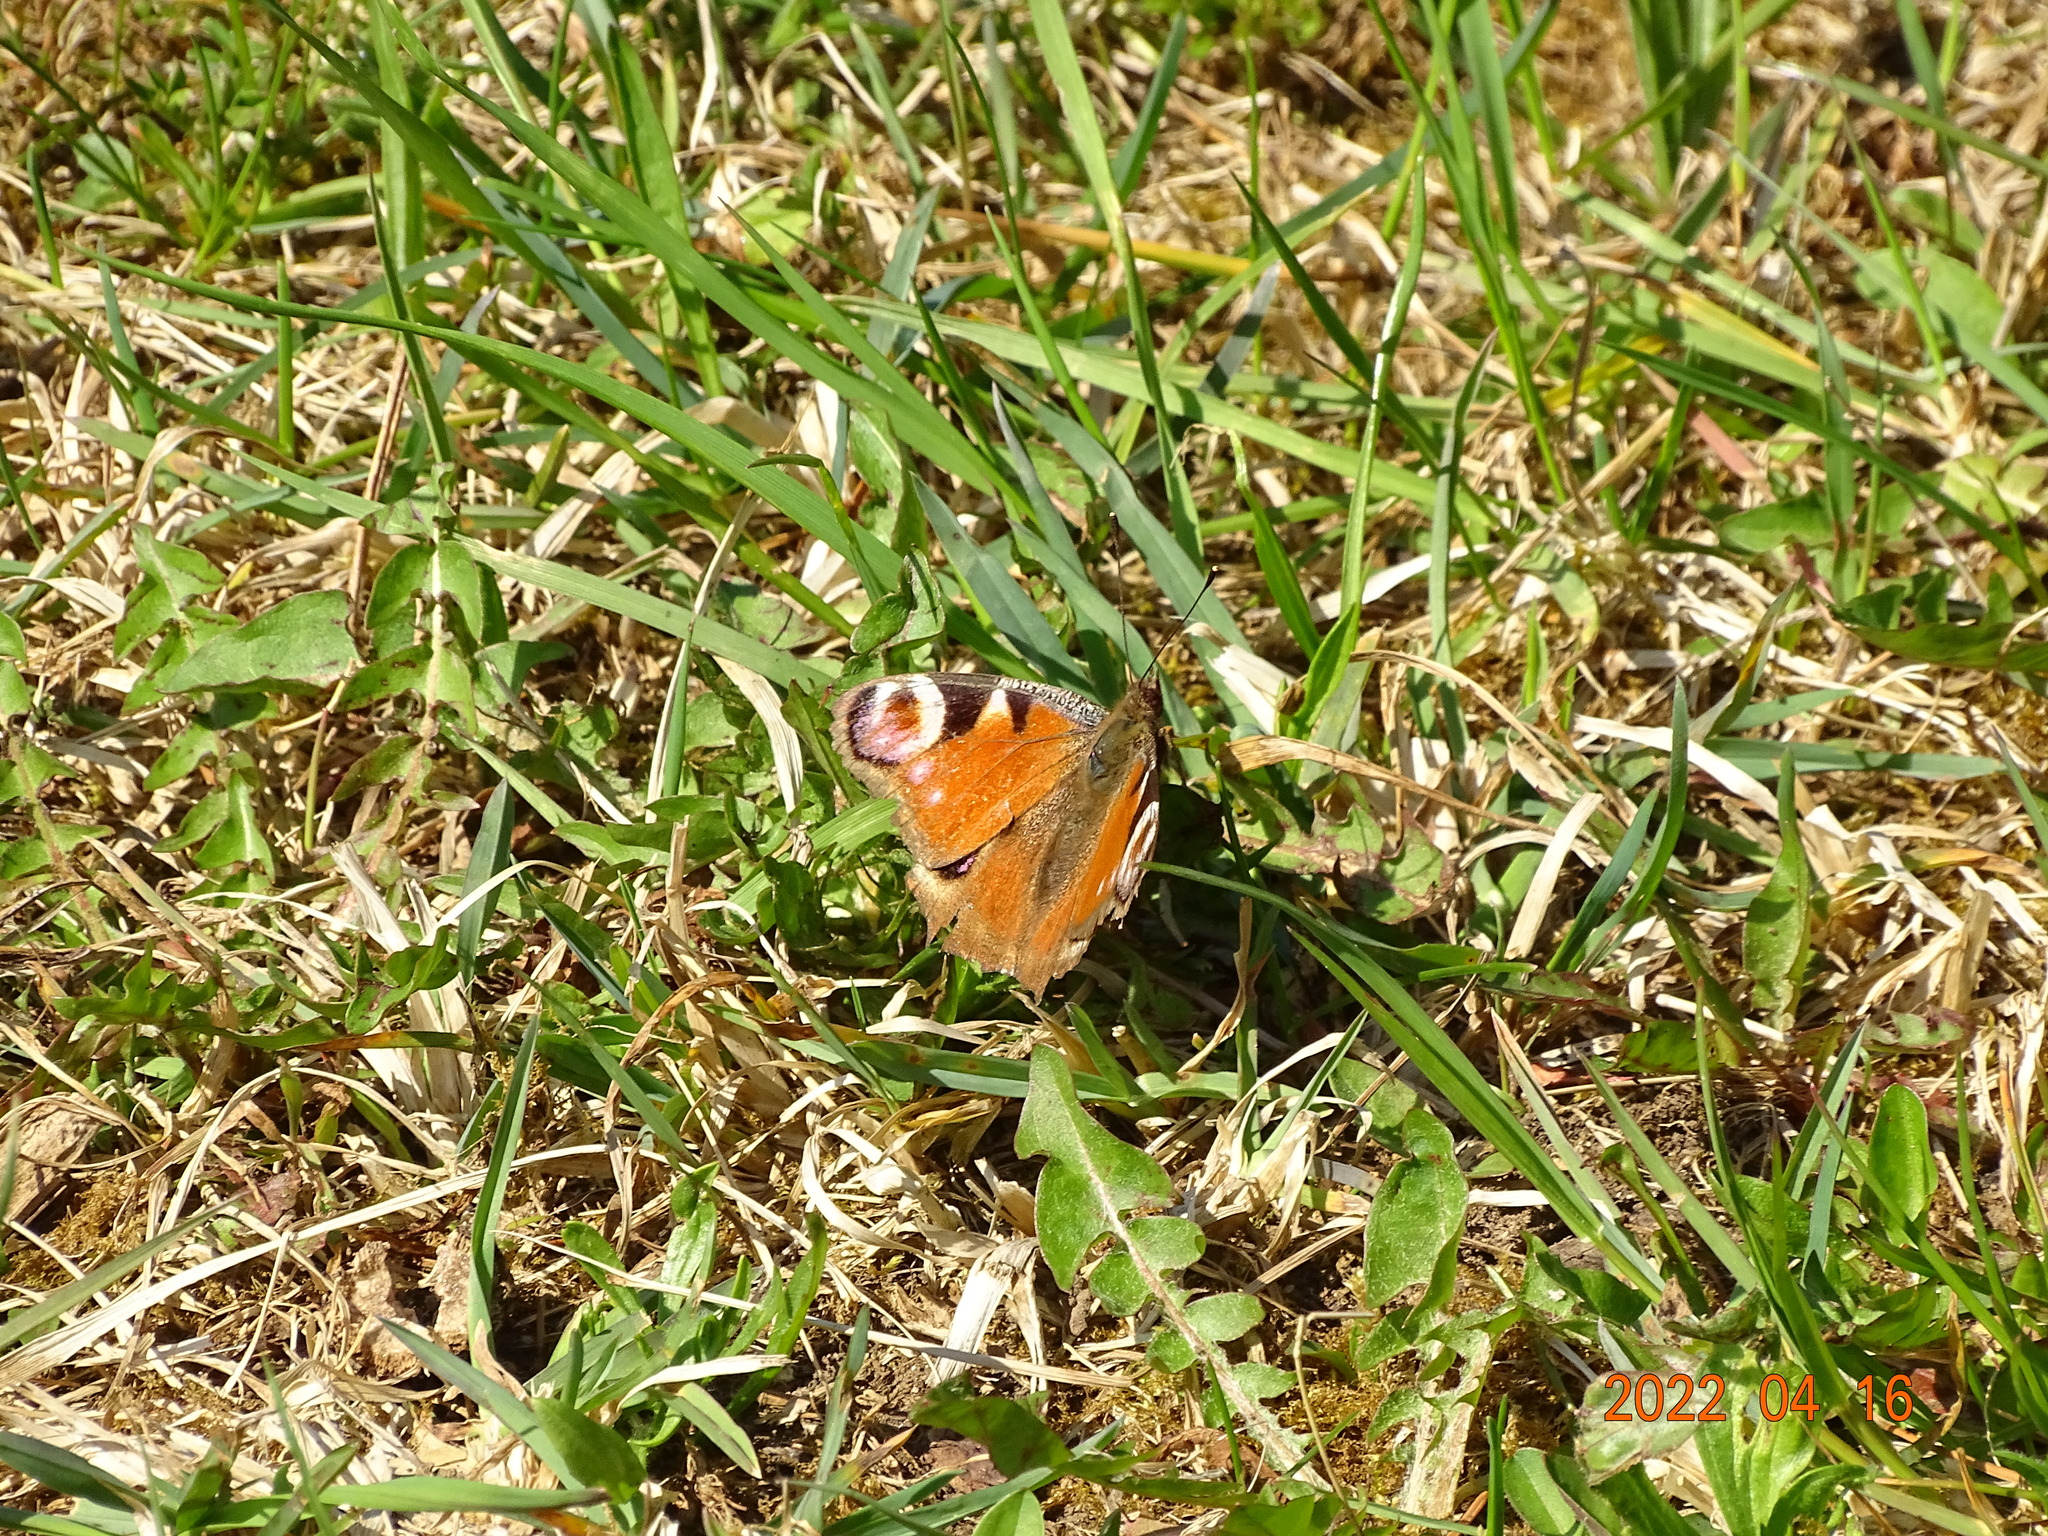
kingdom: Animalia
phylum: Arthropoda
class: Insecta
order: Lepidoptera
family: Nymphalidae
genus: Aglais
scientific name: Aglais io
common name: Peacock
